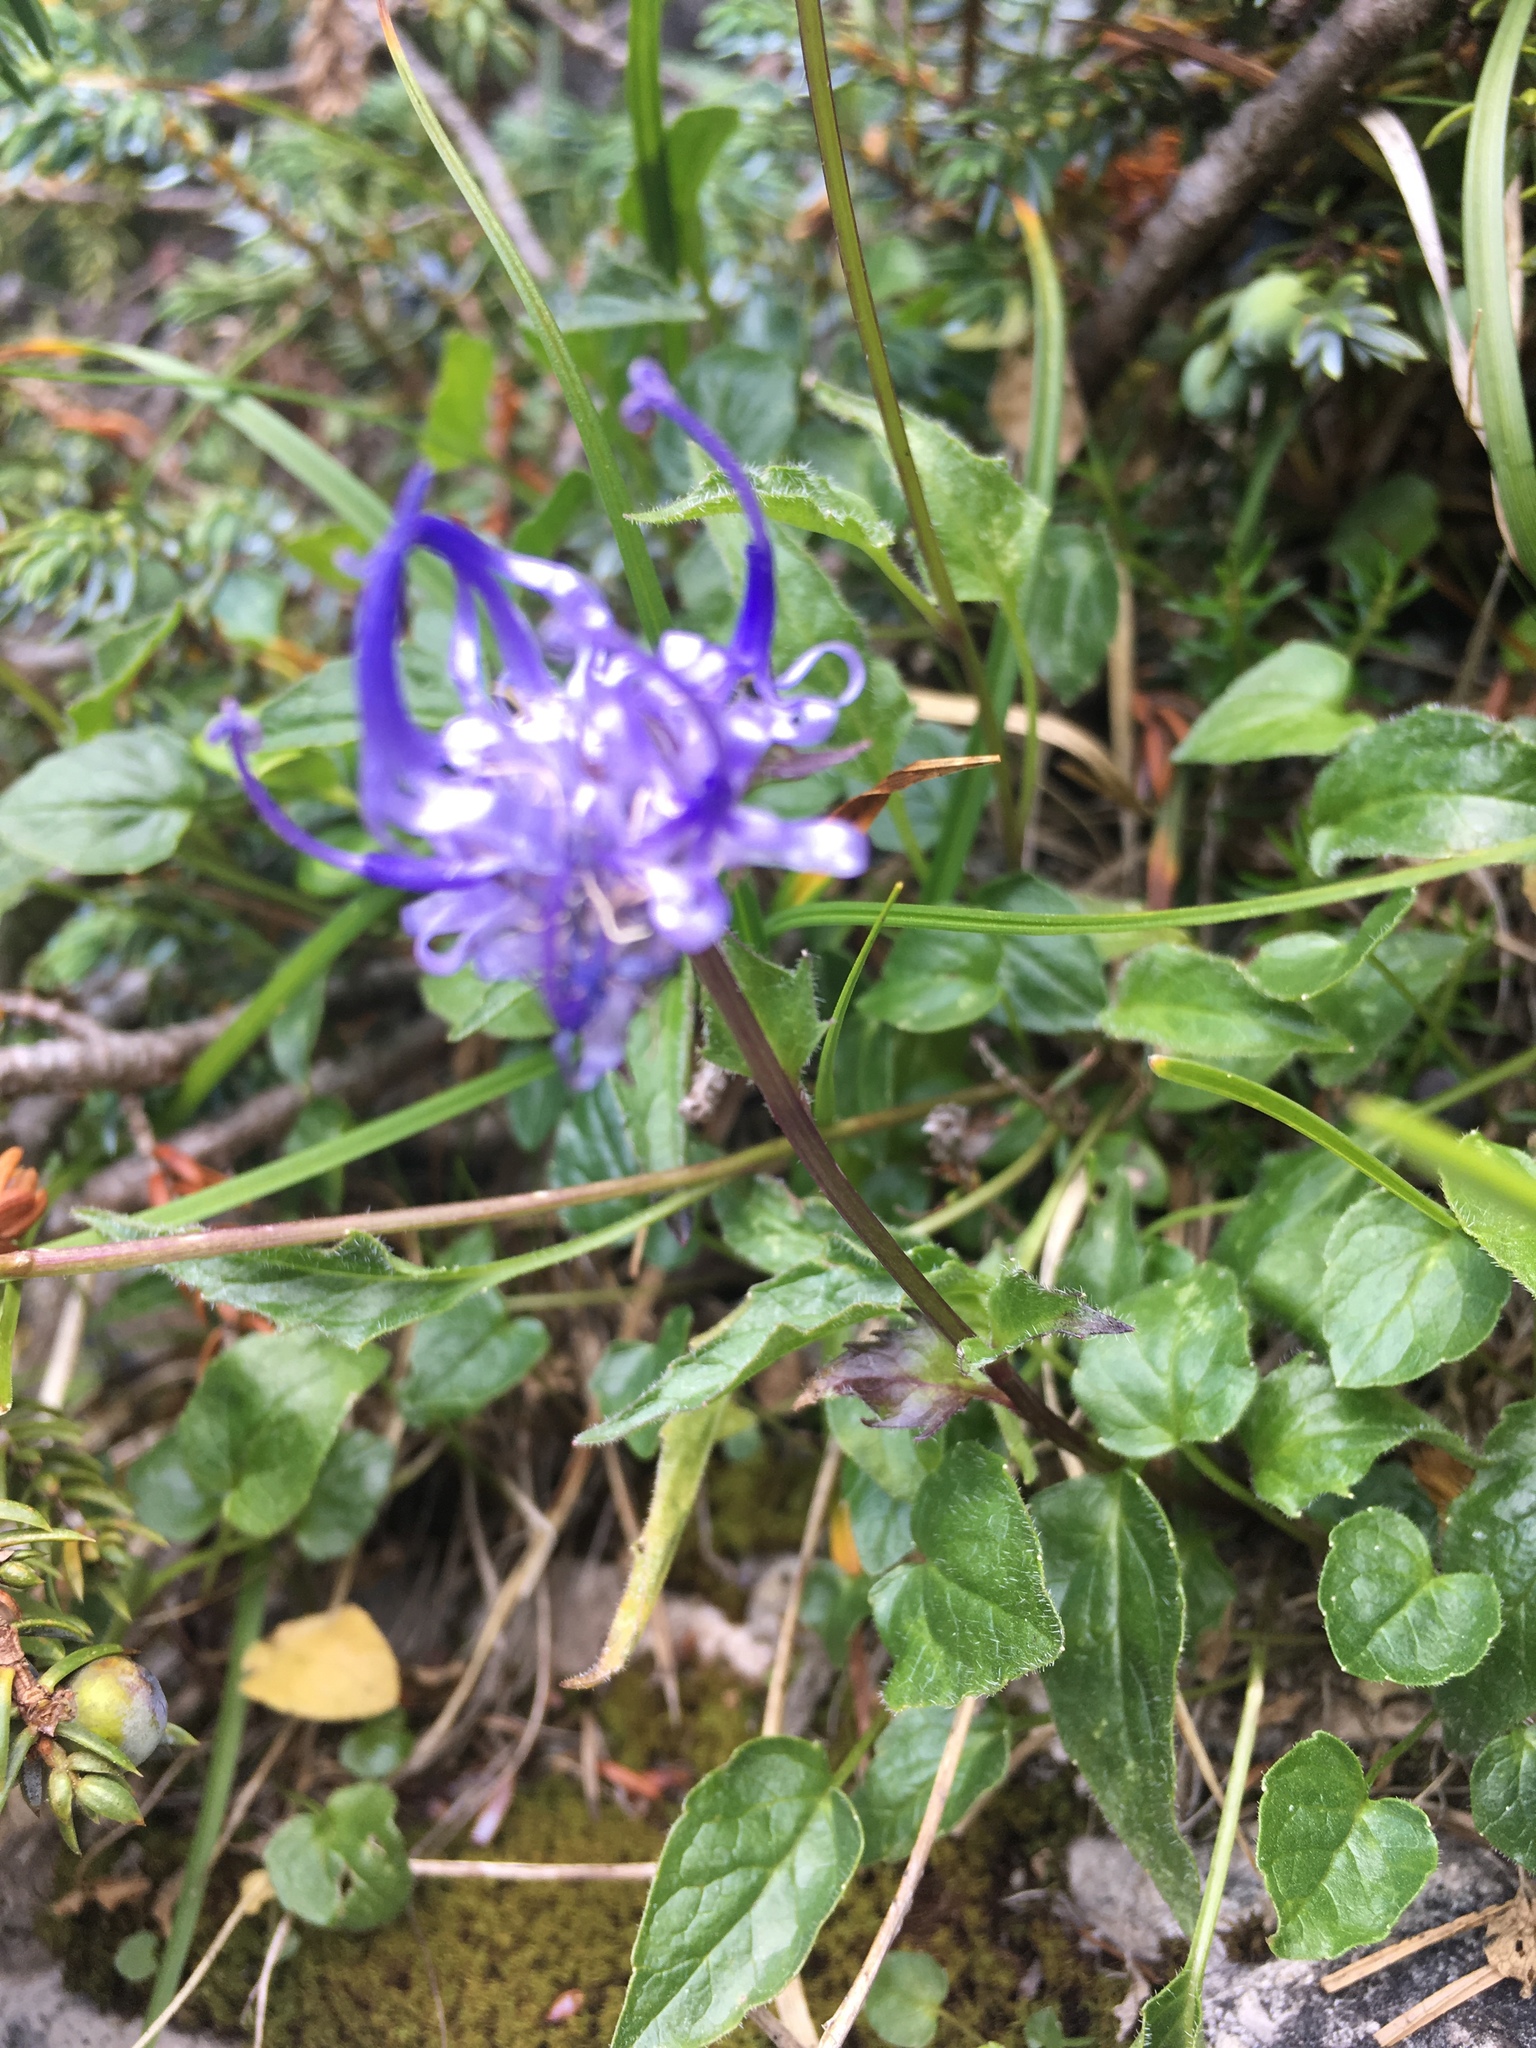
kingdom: Plantae
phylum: Tracheophyta
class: Magnoliopsida
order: Asterales
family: Campanulaceae
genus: Phyteuma
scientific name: Phyteuma sieberi
